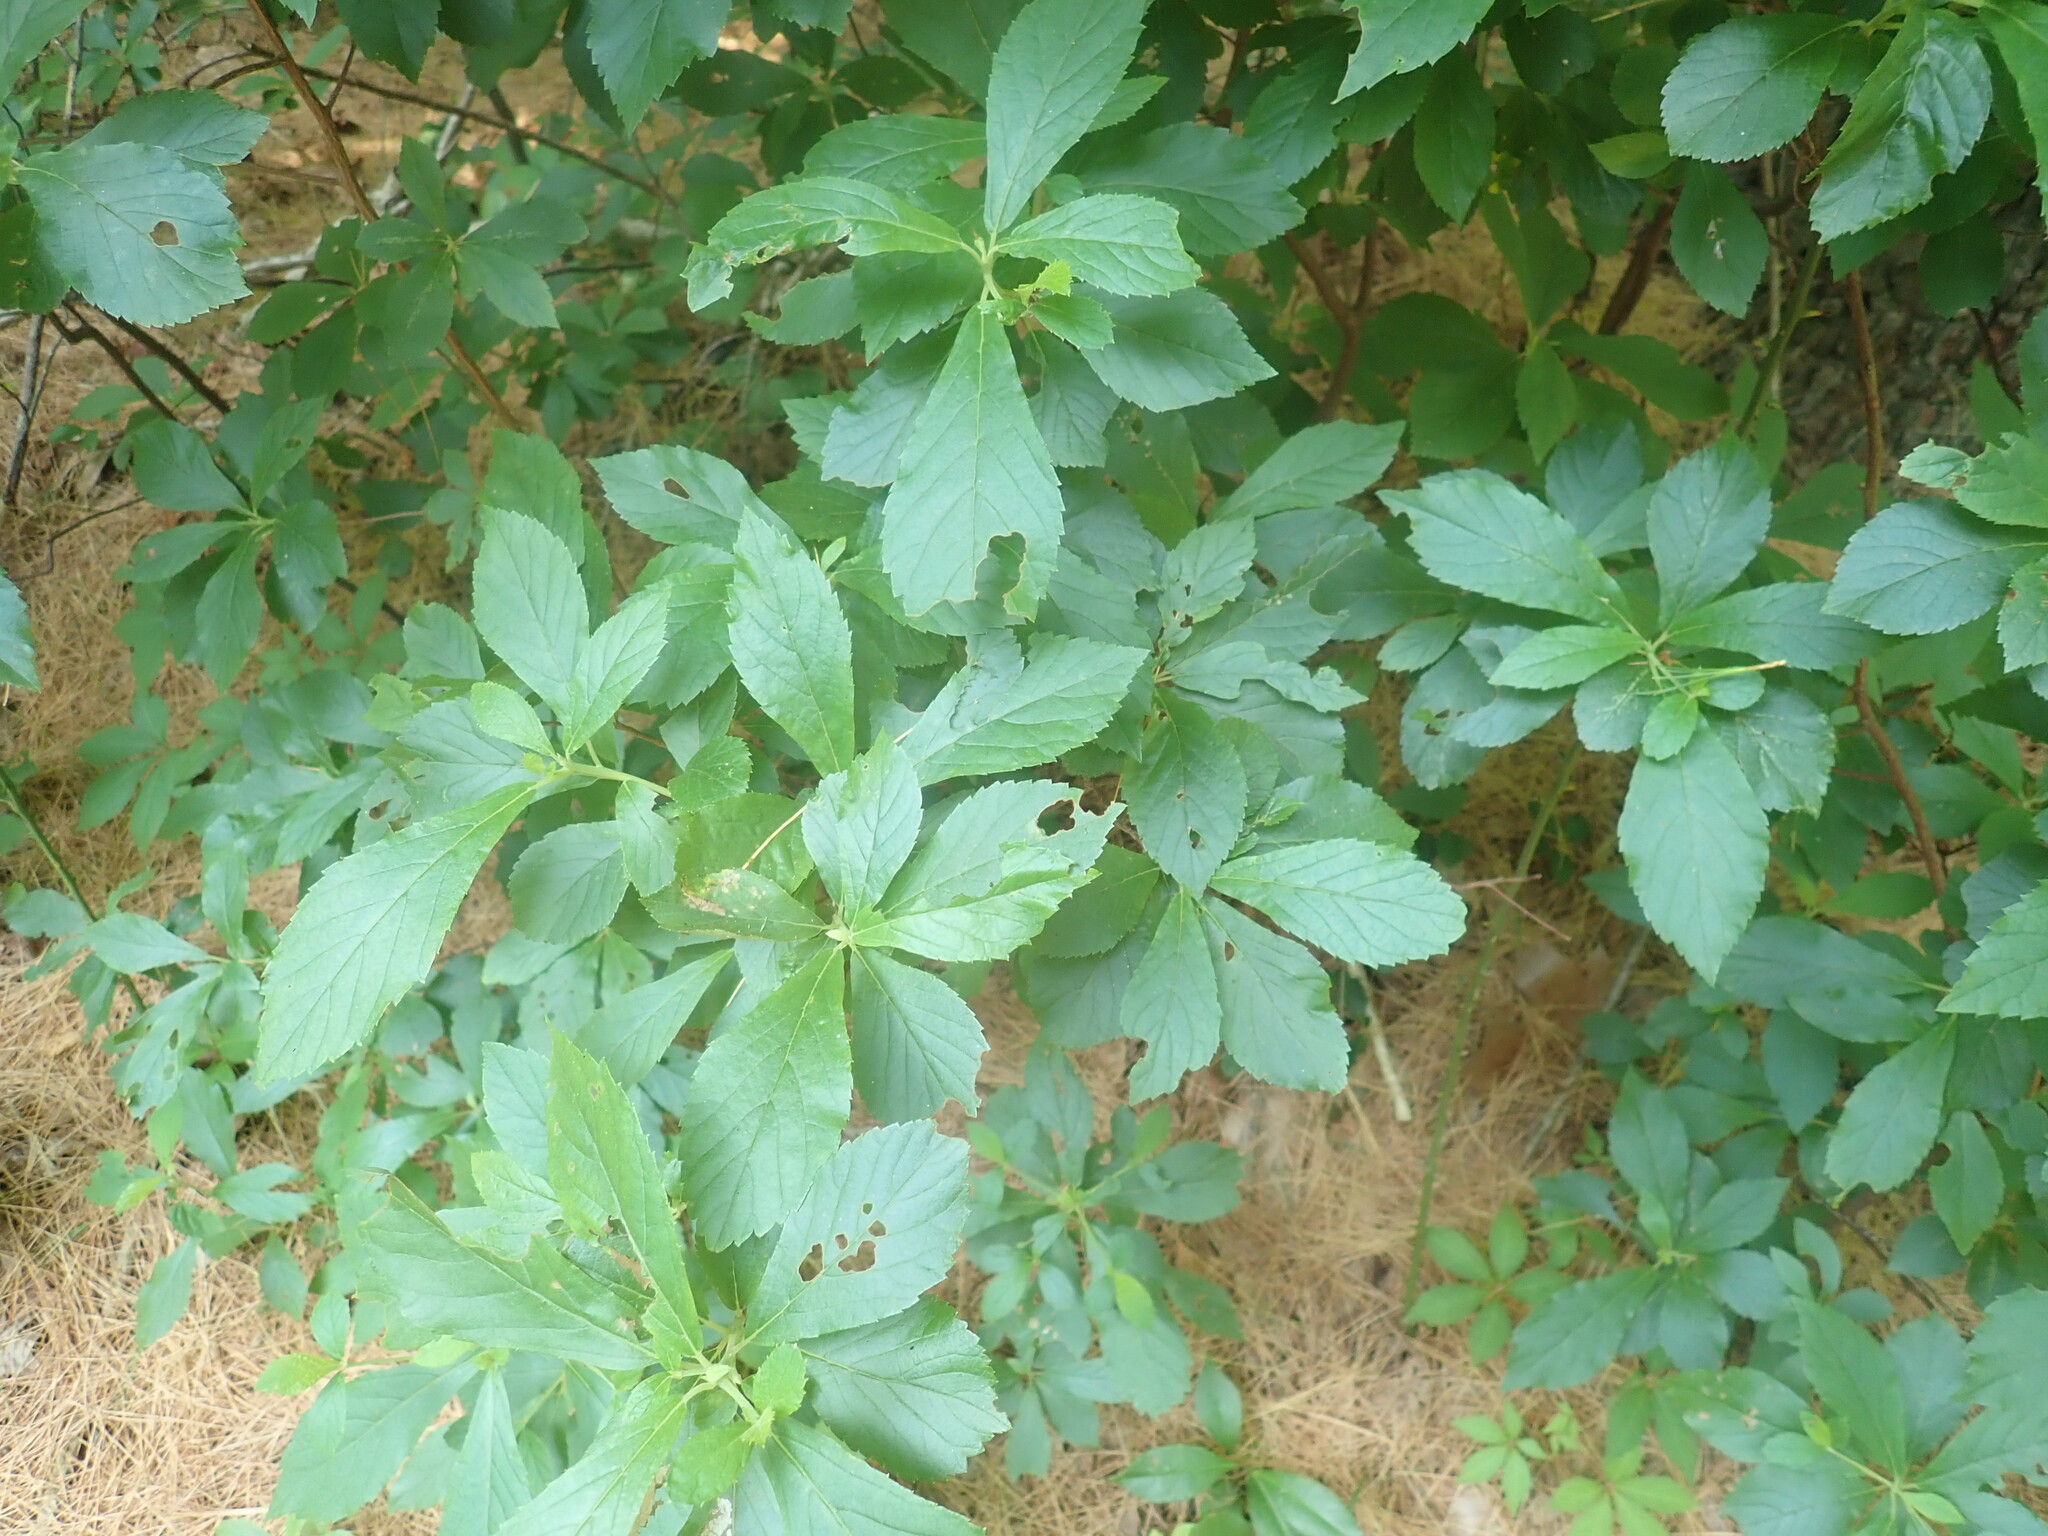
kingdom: Plantae
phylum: Tracheophyta
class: Magnoliopsida
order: Ericales
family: Clethraceae
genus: Clethra
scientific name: Clethra alnifolia
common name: Sweet pepperbush
